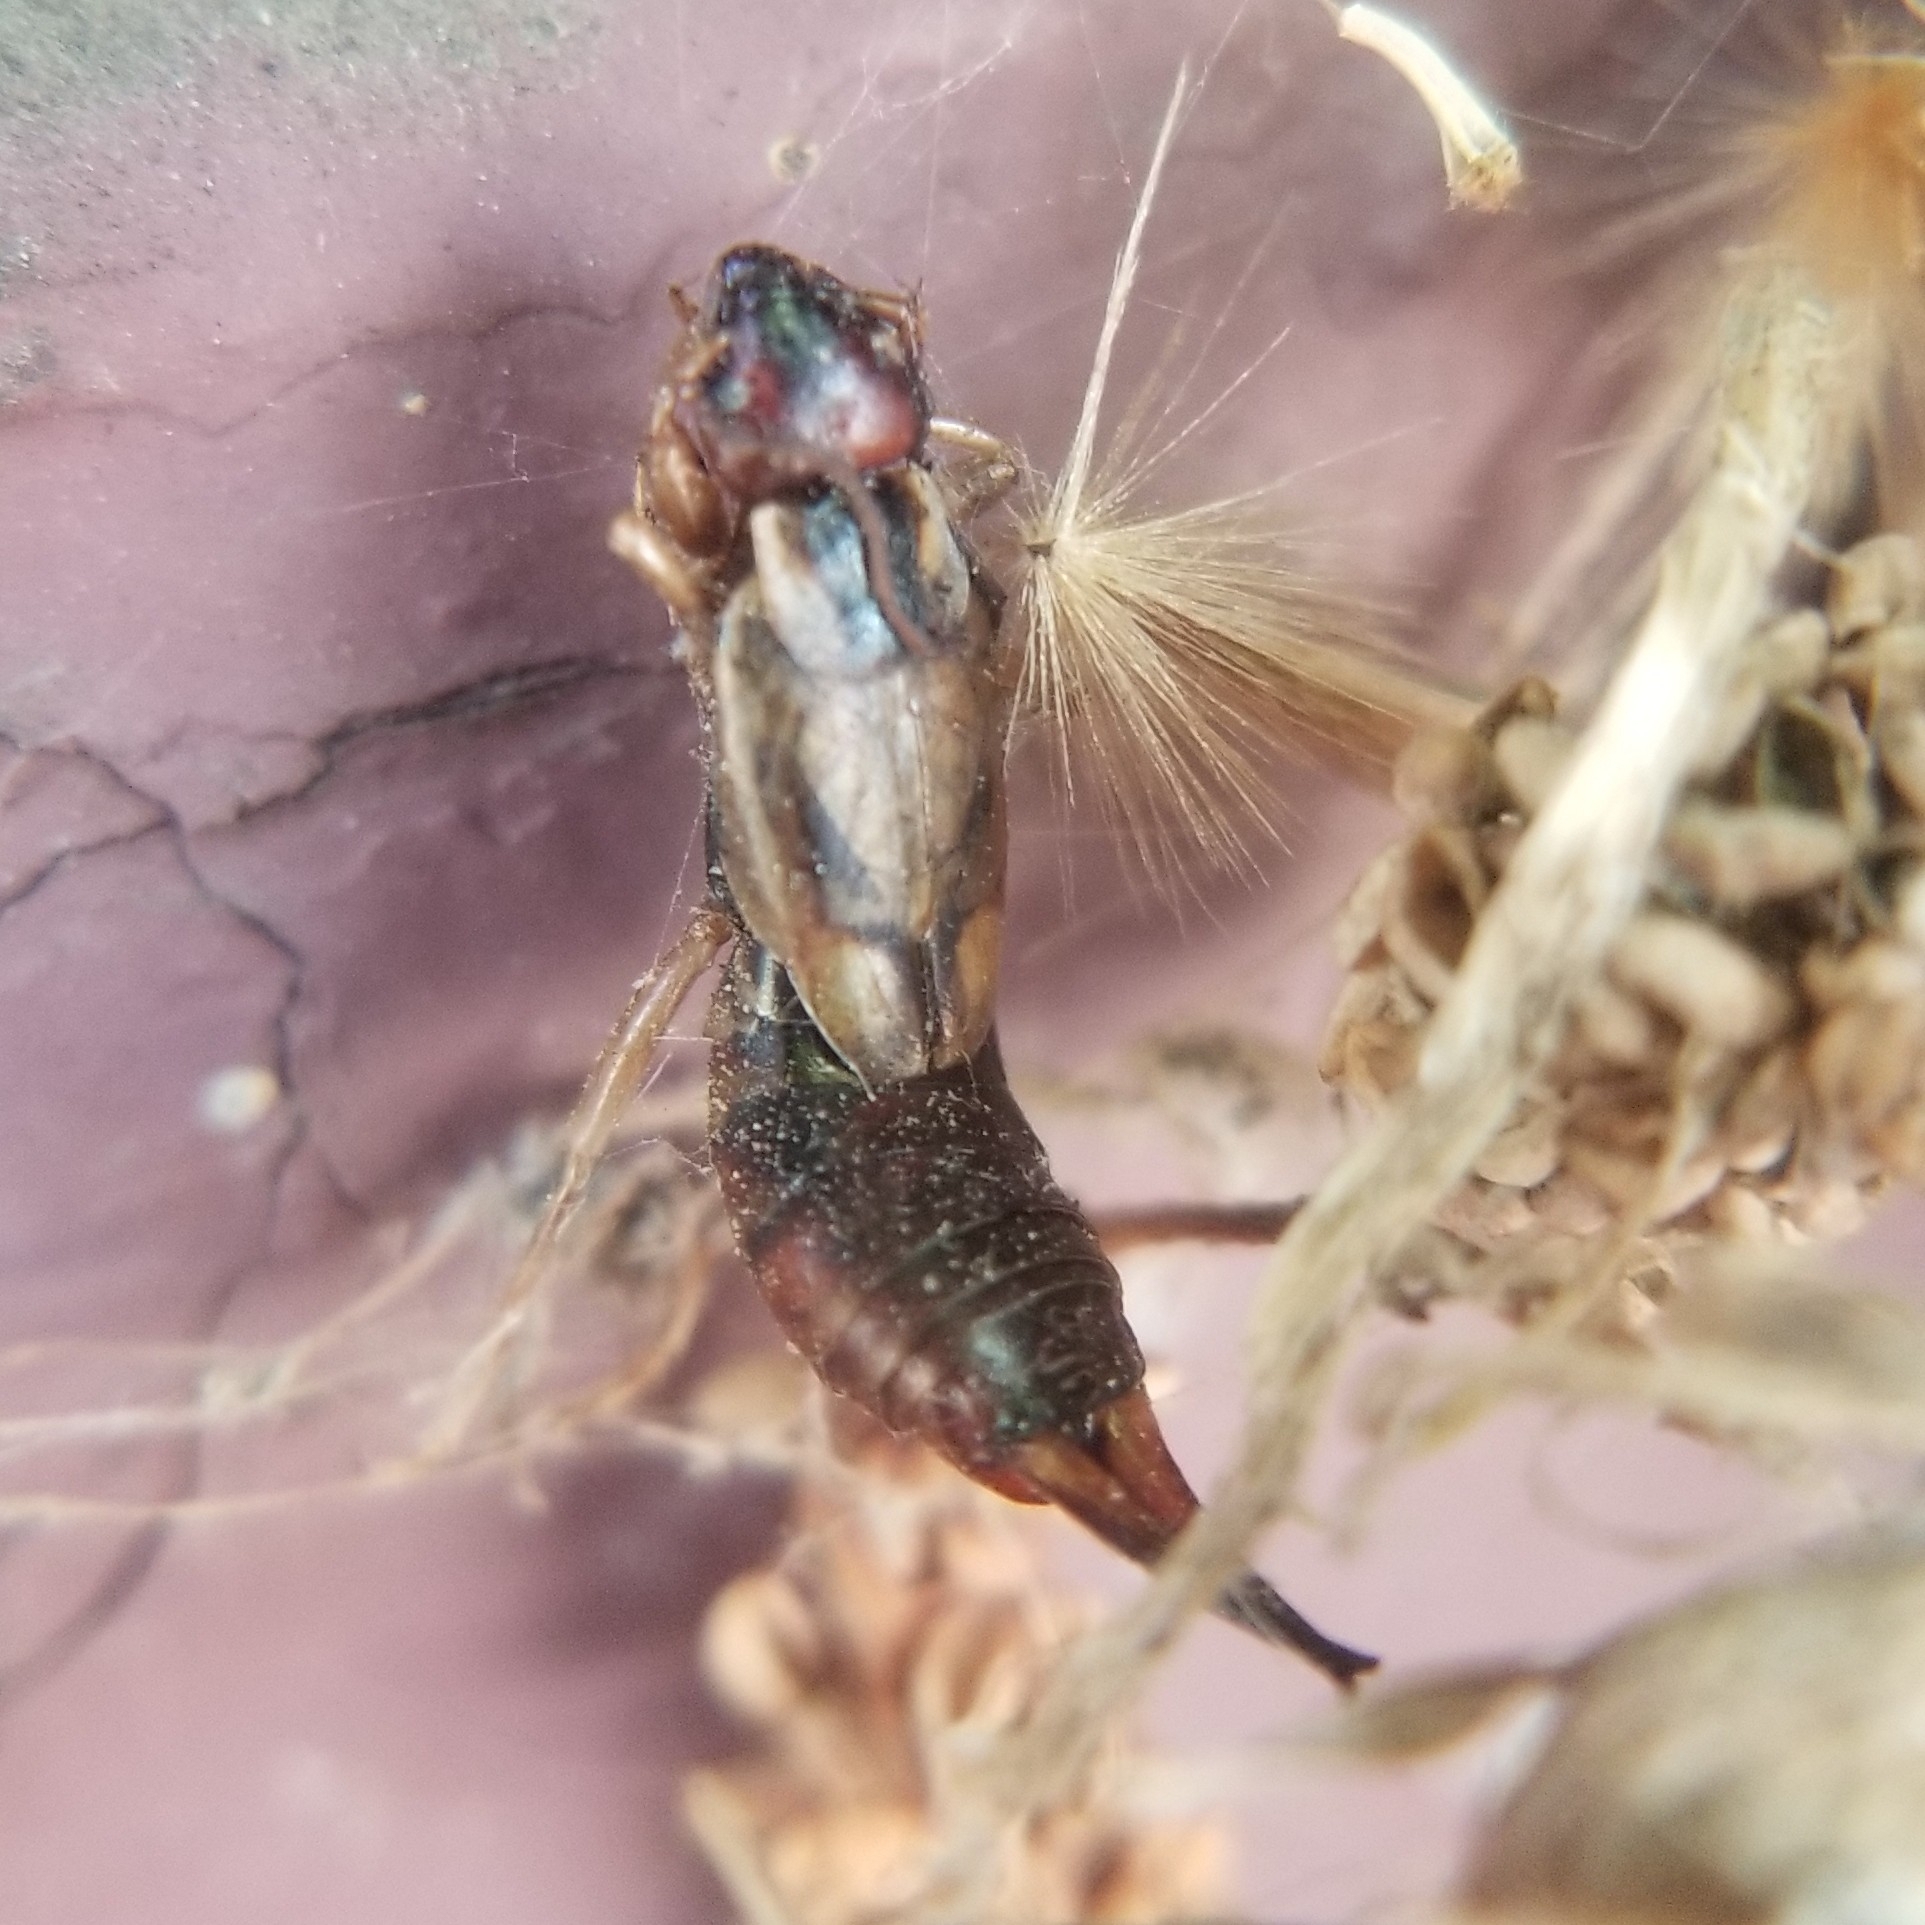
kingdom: Animalia
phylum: Arthropoda
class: Insecta
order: Dermaptera
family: Forficulidae
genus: Forficula
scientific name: Forficula
